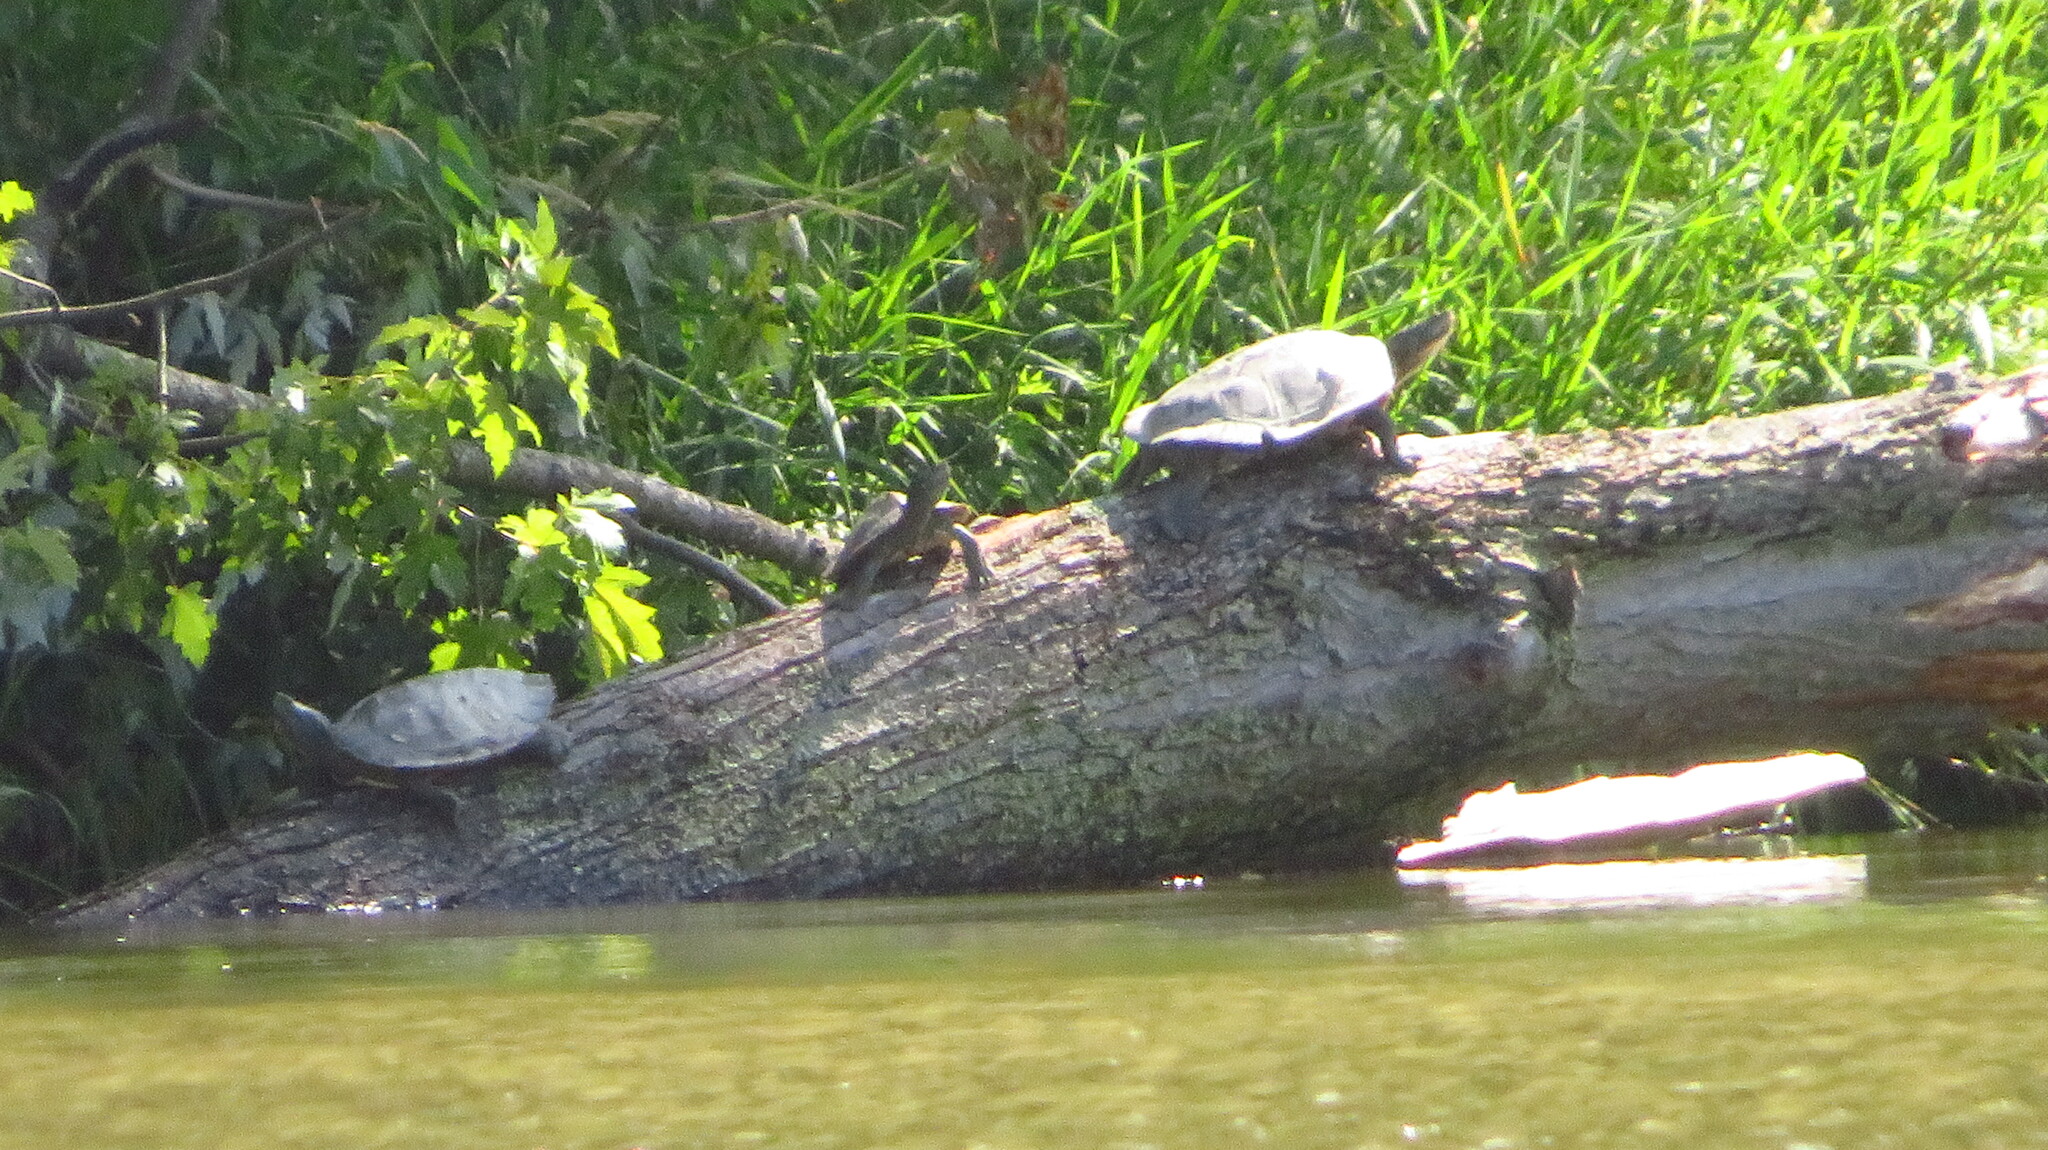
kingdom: Animalia
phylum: Chordata
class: Testudines
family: Emydidae
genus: Graptemys
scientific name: Graptemys geographica
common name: Common map turtle
